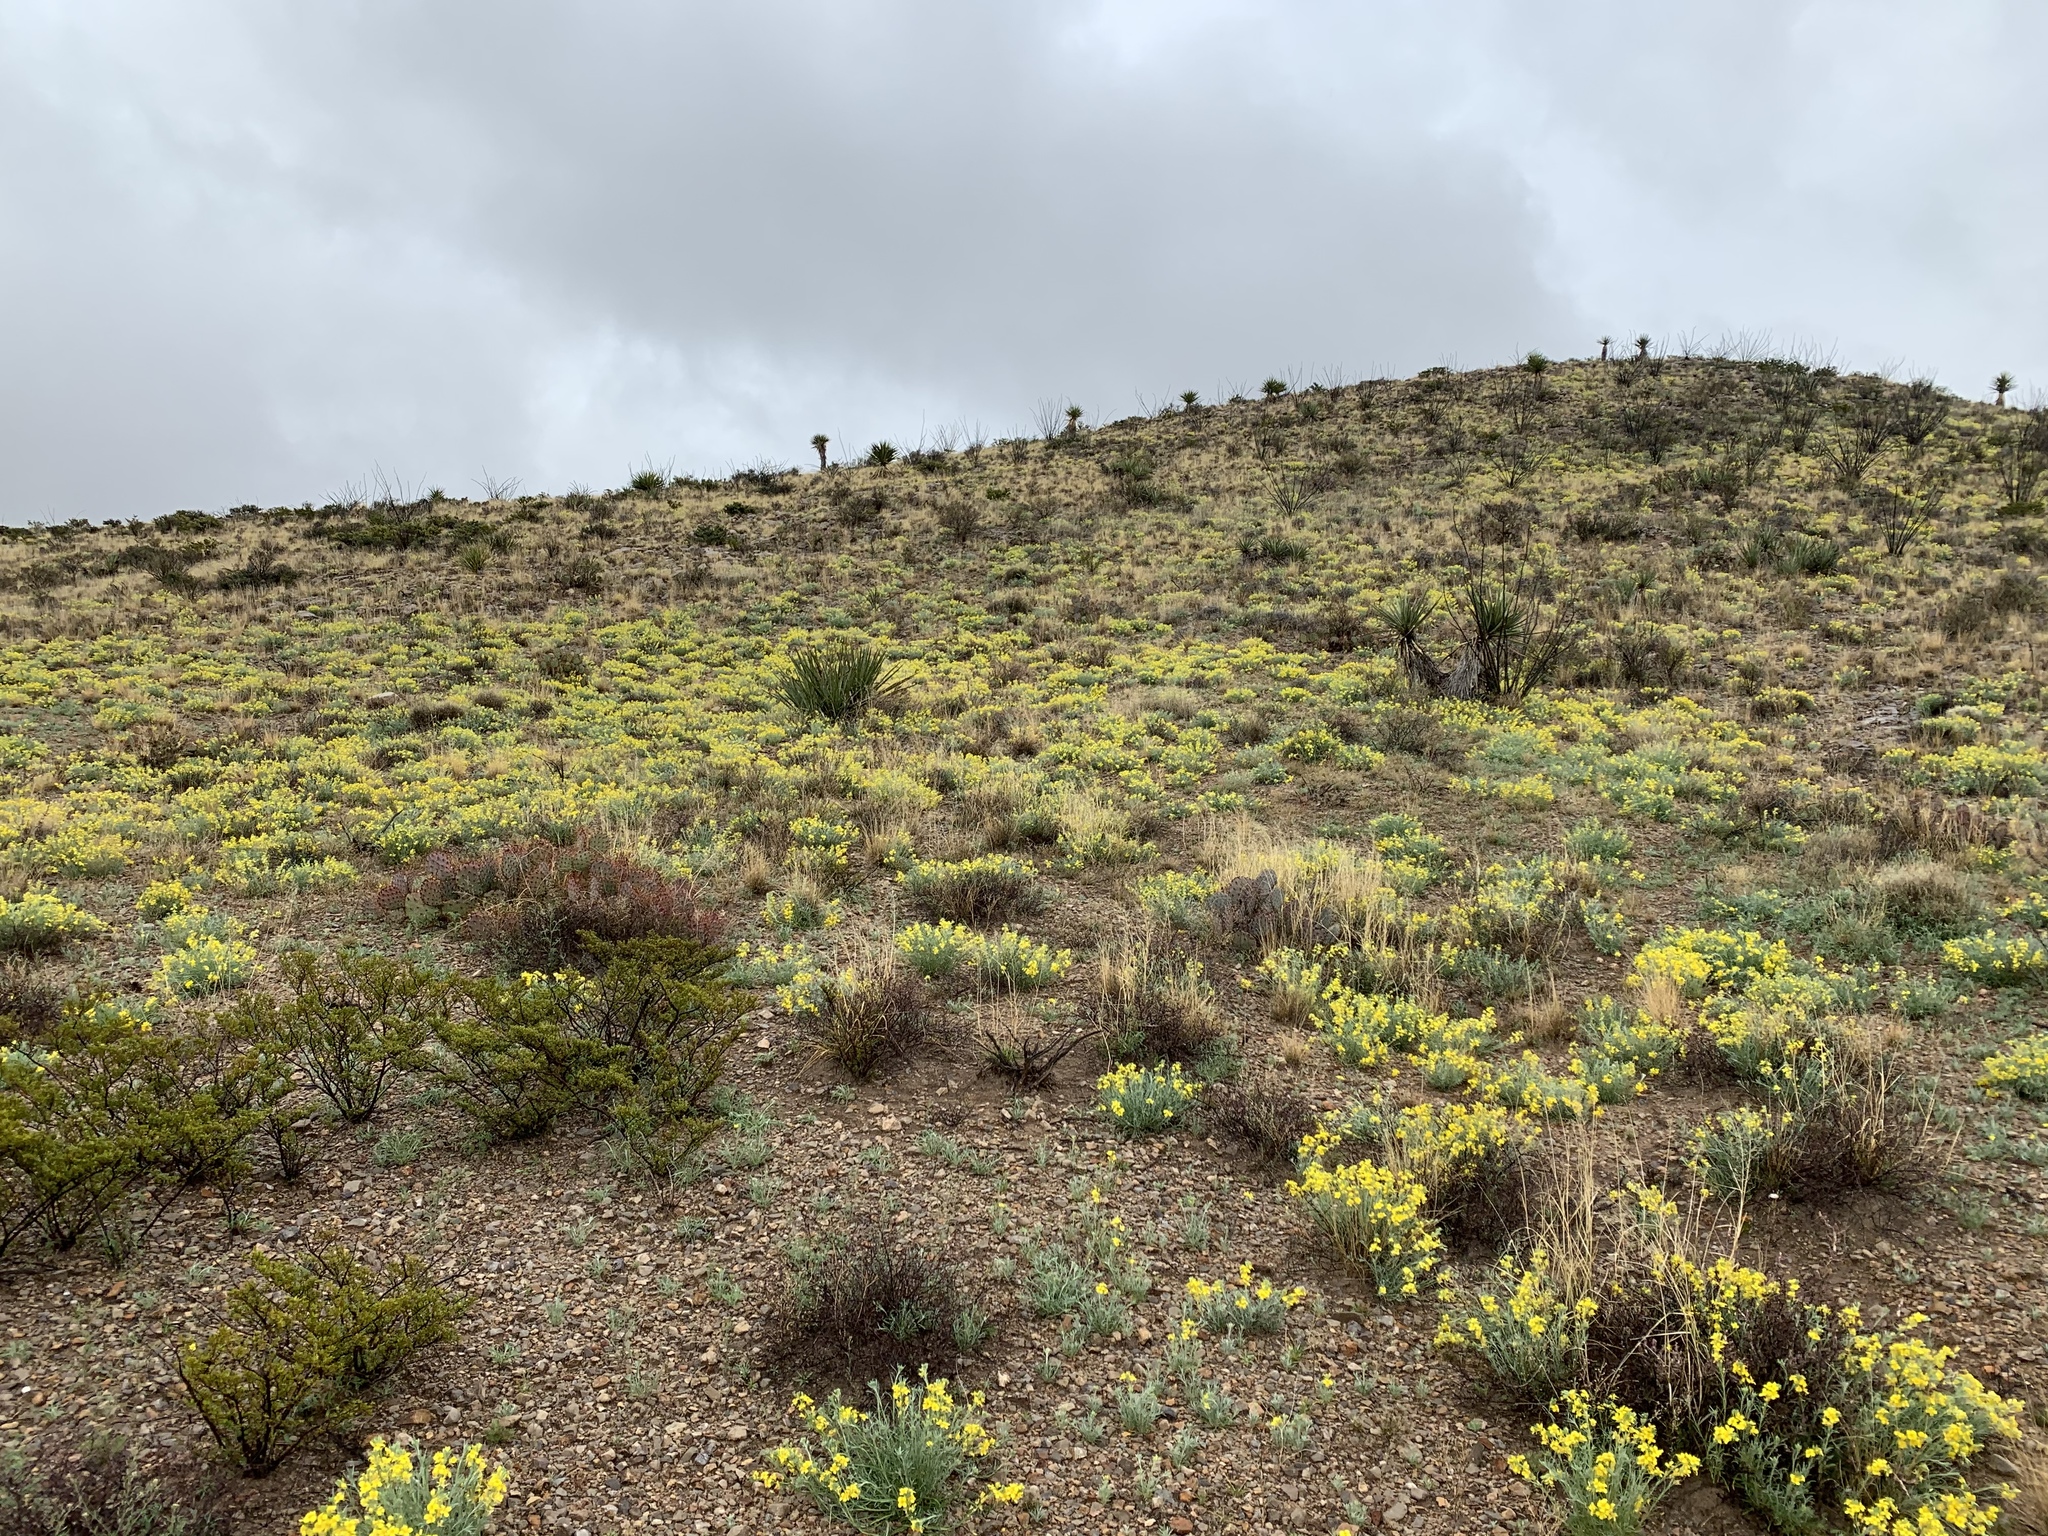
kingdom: Plantae
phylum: Tracheophyta
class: Magnoliopsida
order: Brassicales
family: Brassicaceae
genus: Physaria
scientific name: Physaria fendleri
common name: Fendler's bladderpod
